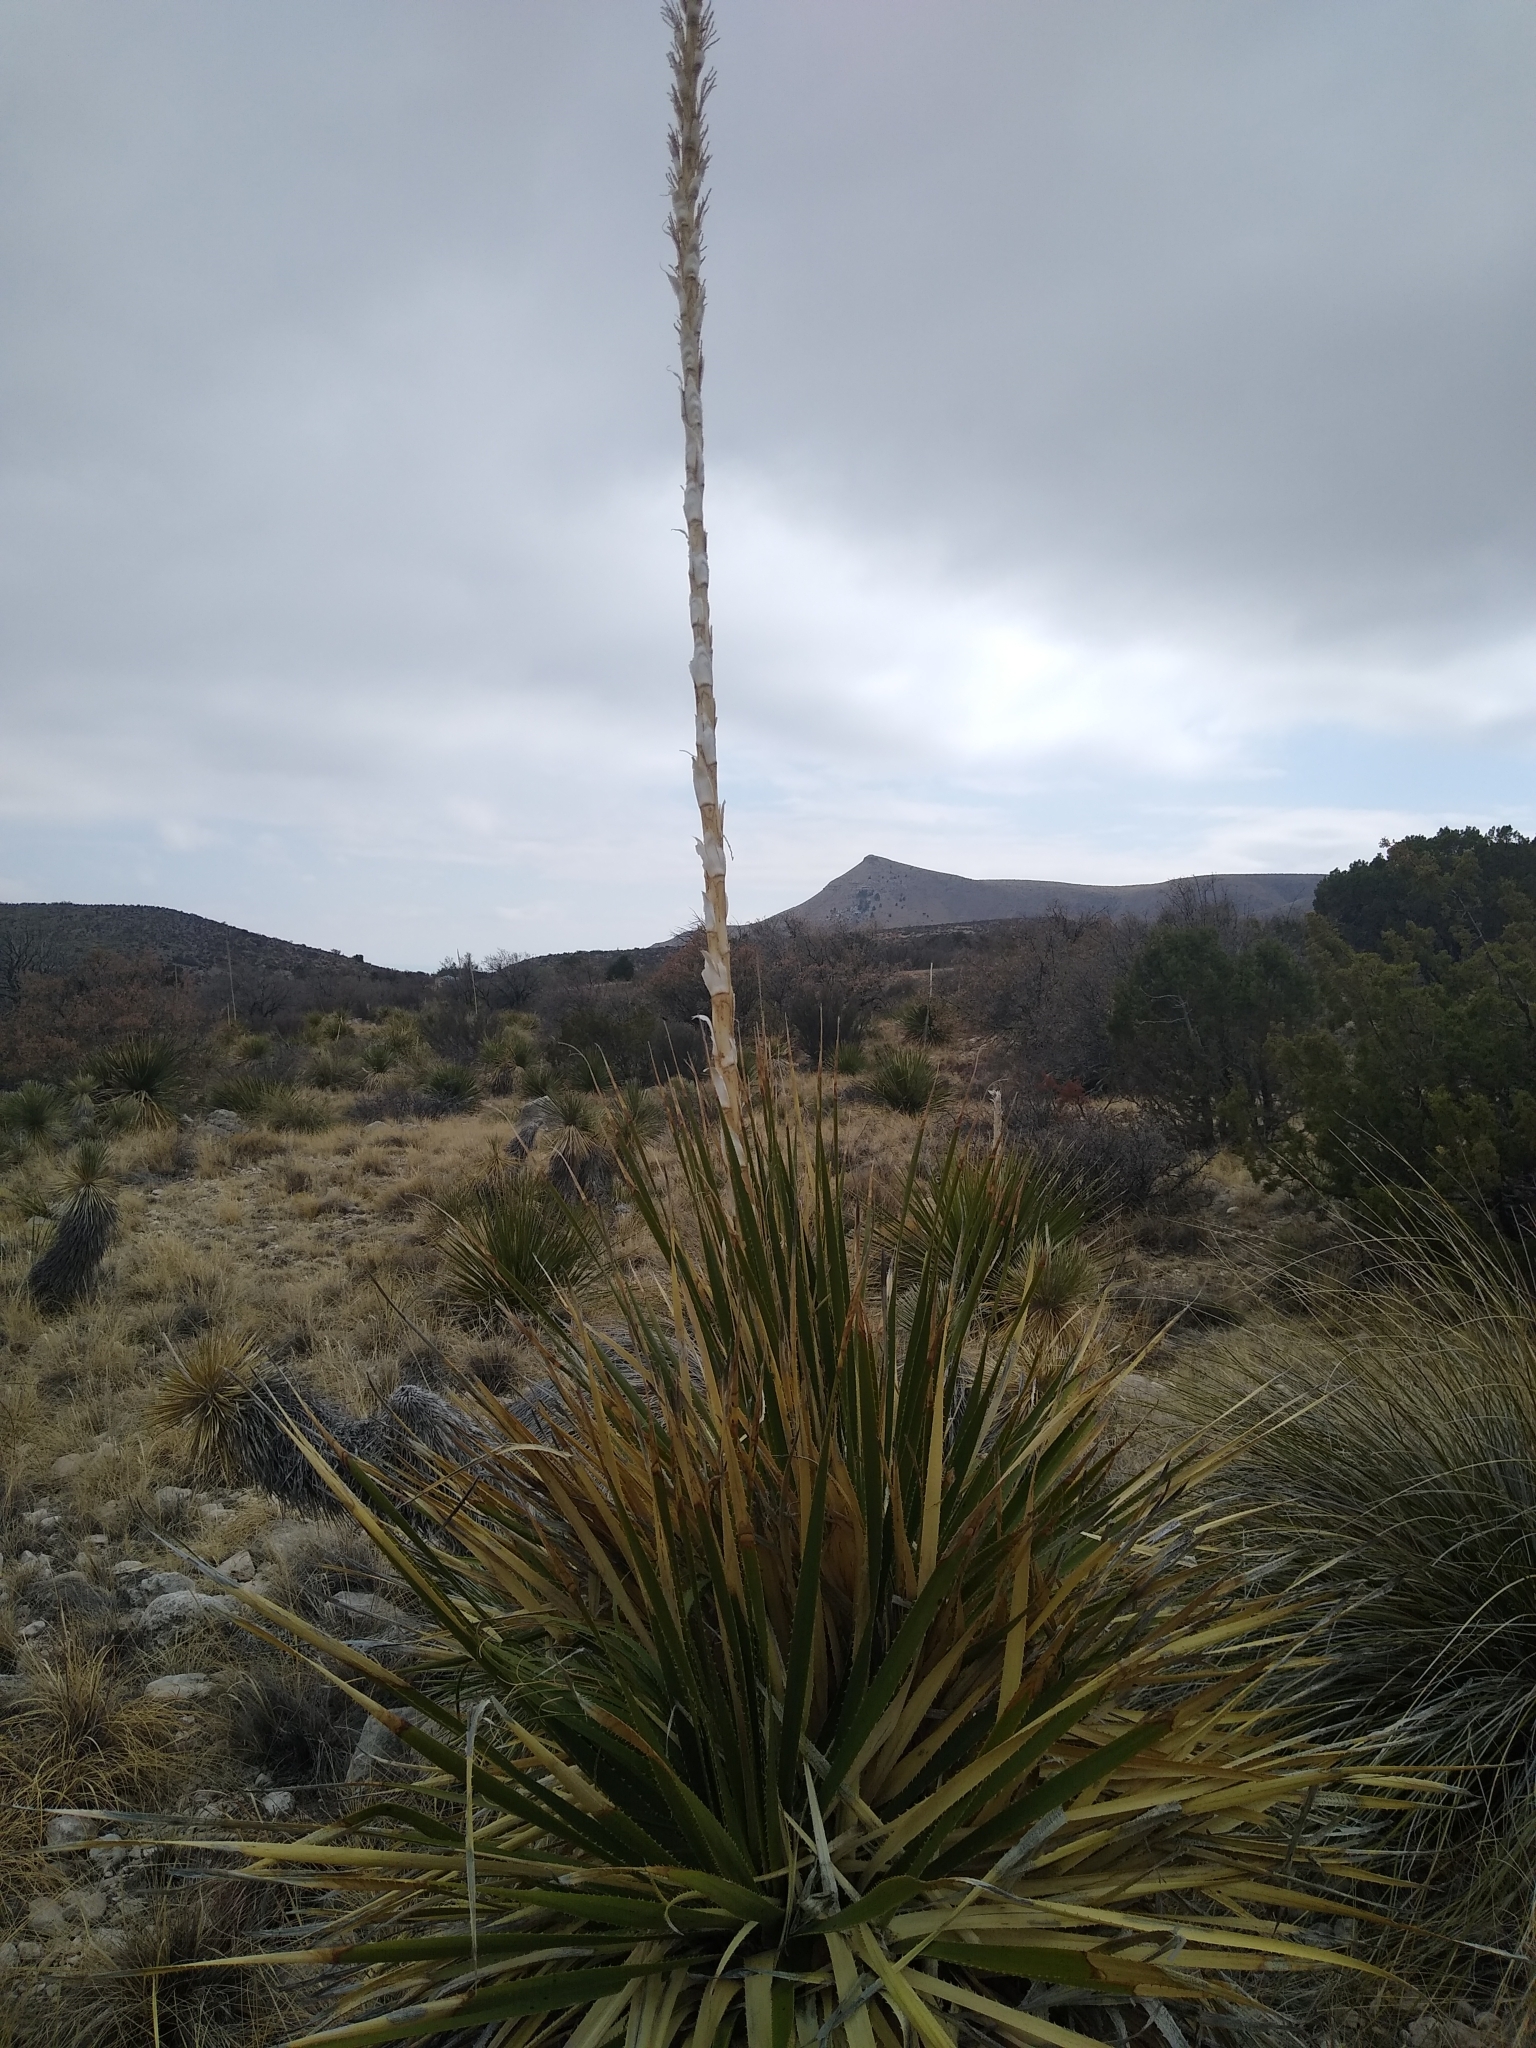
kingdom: Plantae
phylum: Tracheophyta
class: Liliopsida
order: Asparagales
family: Asparagaceae
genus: Dasylirion
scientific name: Dasylirion leiophyllum
